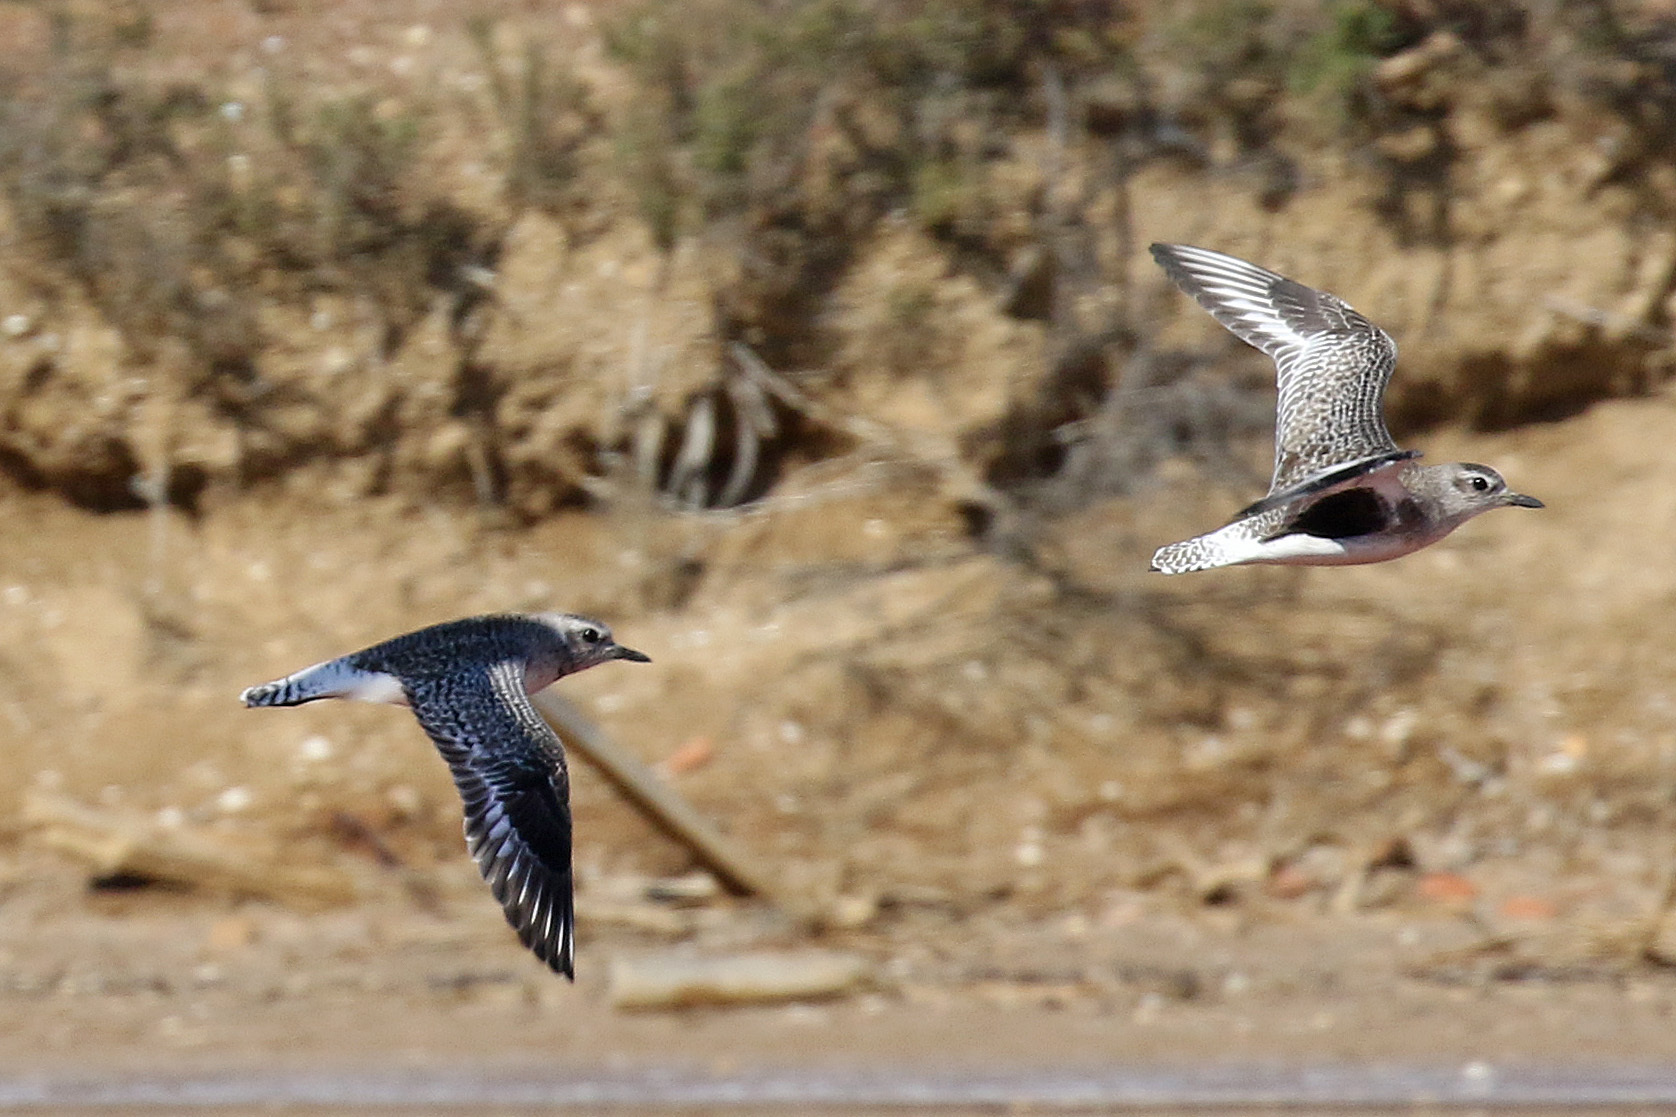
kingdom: Animalia
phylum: Chordata
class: Aves
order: Charadriiformes
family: Charadriidae
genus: Pluvialis
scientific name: Pluvialis squatarola
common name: Grey plover
